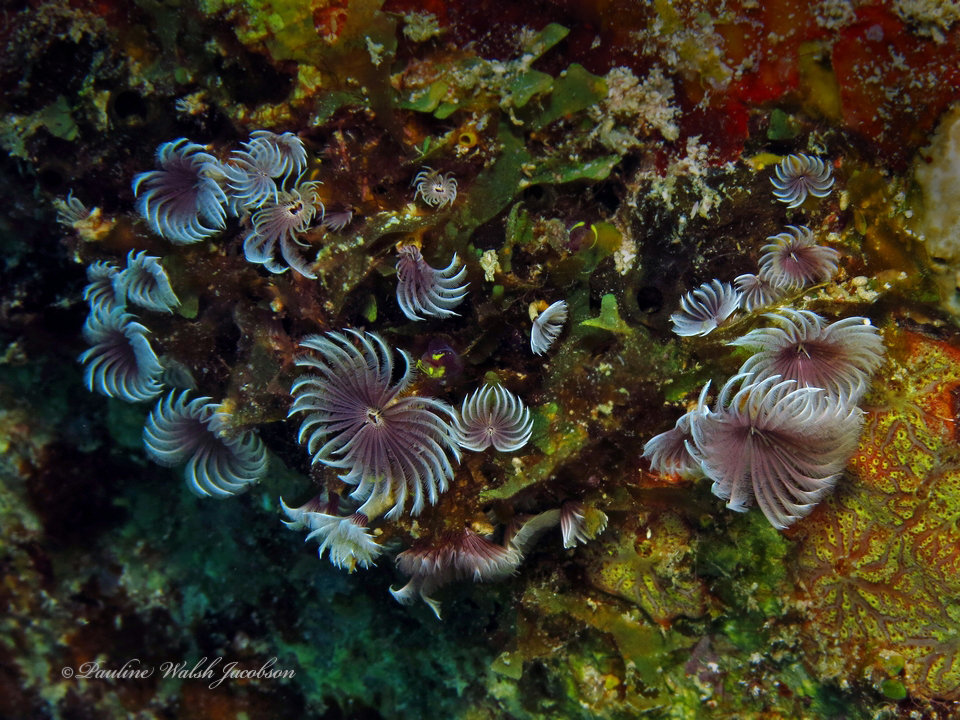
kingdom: Animalia
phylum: Annelida
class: Polychaeta
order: Sabellida
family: Sabellidae
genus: Bispira
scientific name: Bispira brunnea
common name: Social feather duster
